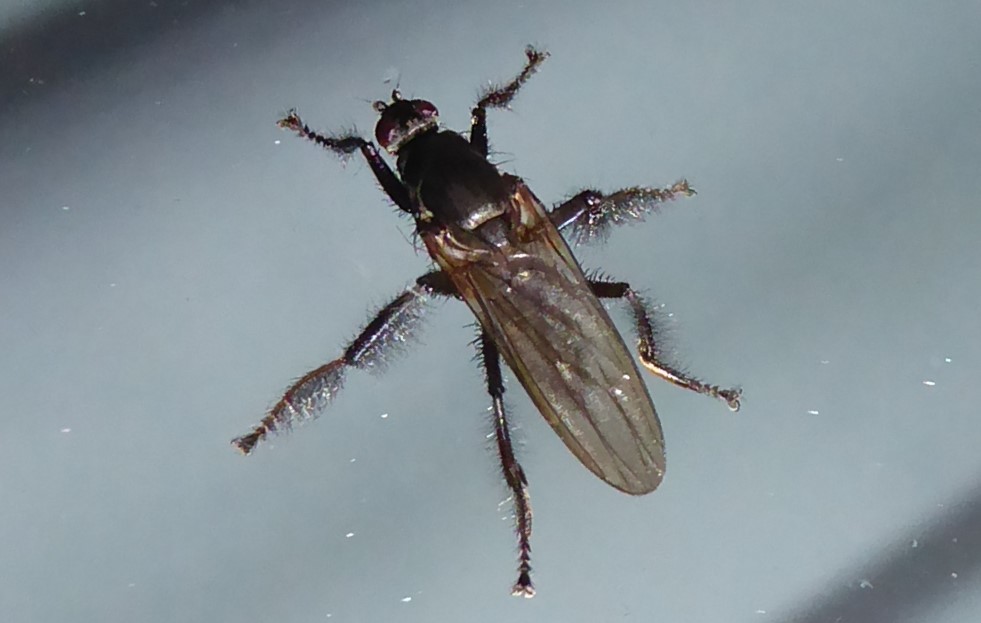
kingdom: Animalia
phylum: Arthropoda
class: Insecta
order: Diptera
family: Coelopidae
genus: Chaetocoelopa
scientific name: Chaetocoelopa littoralis
